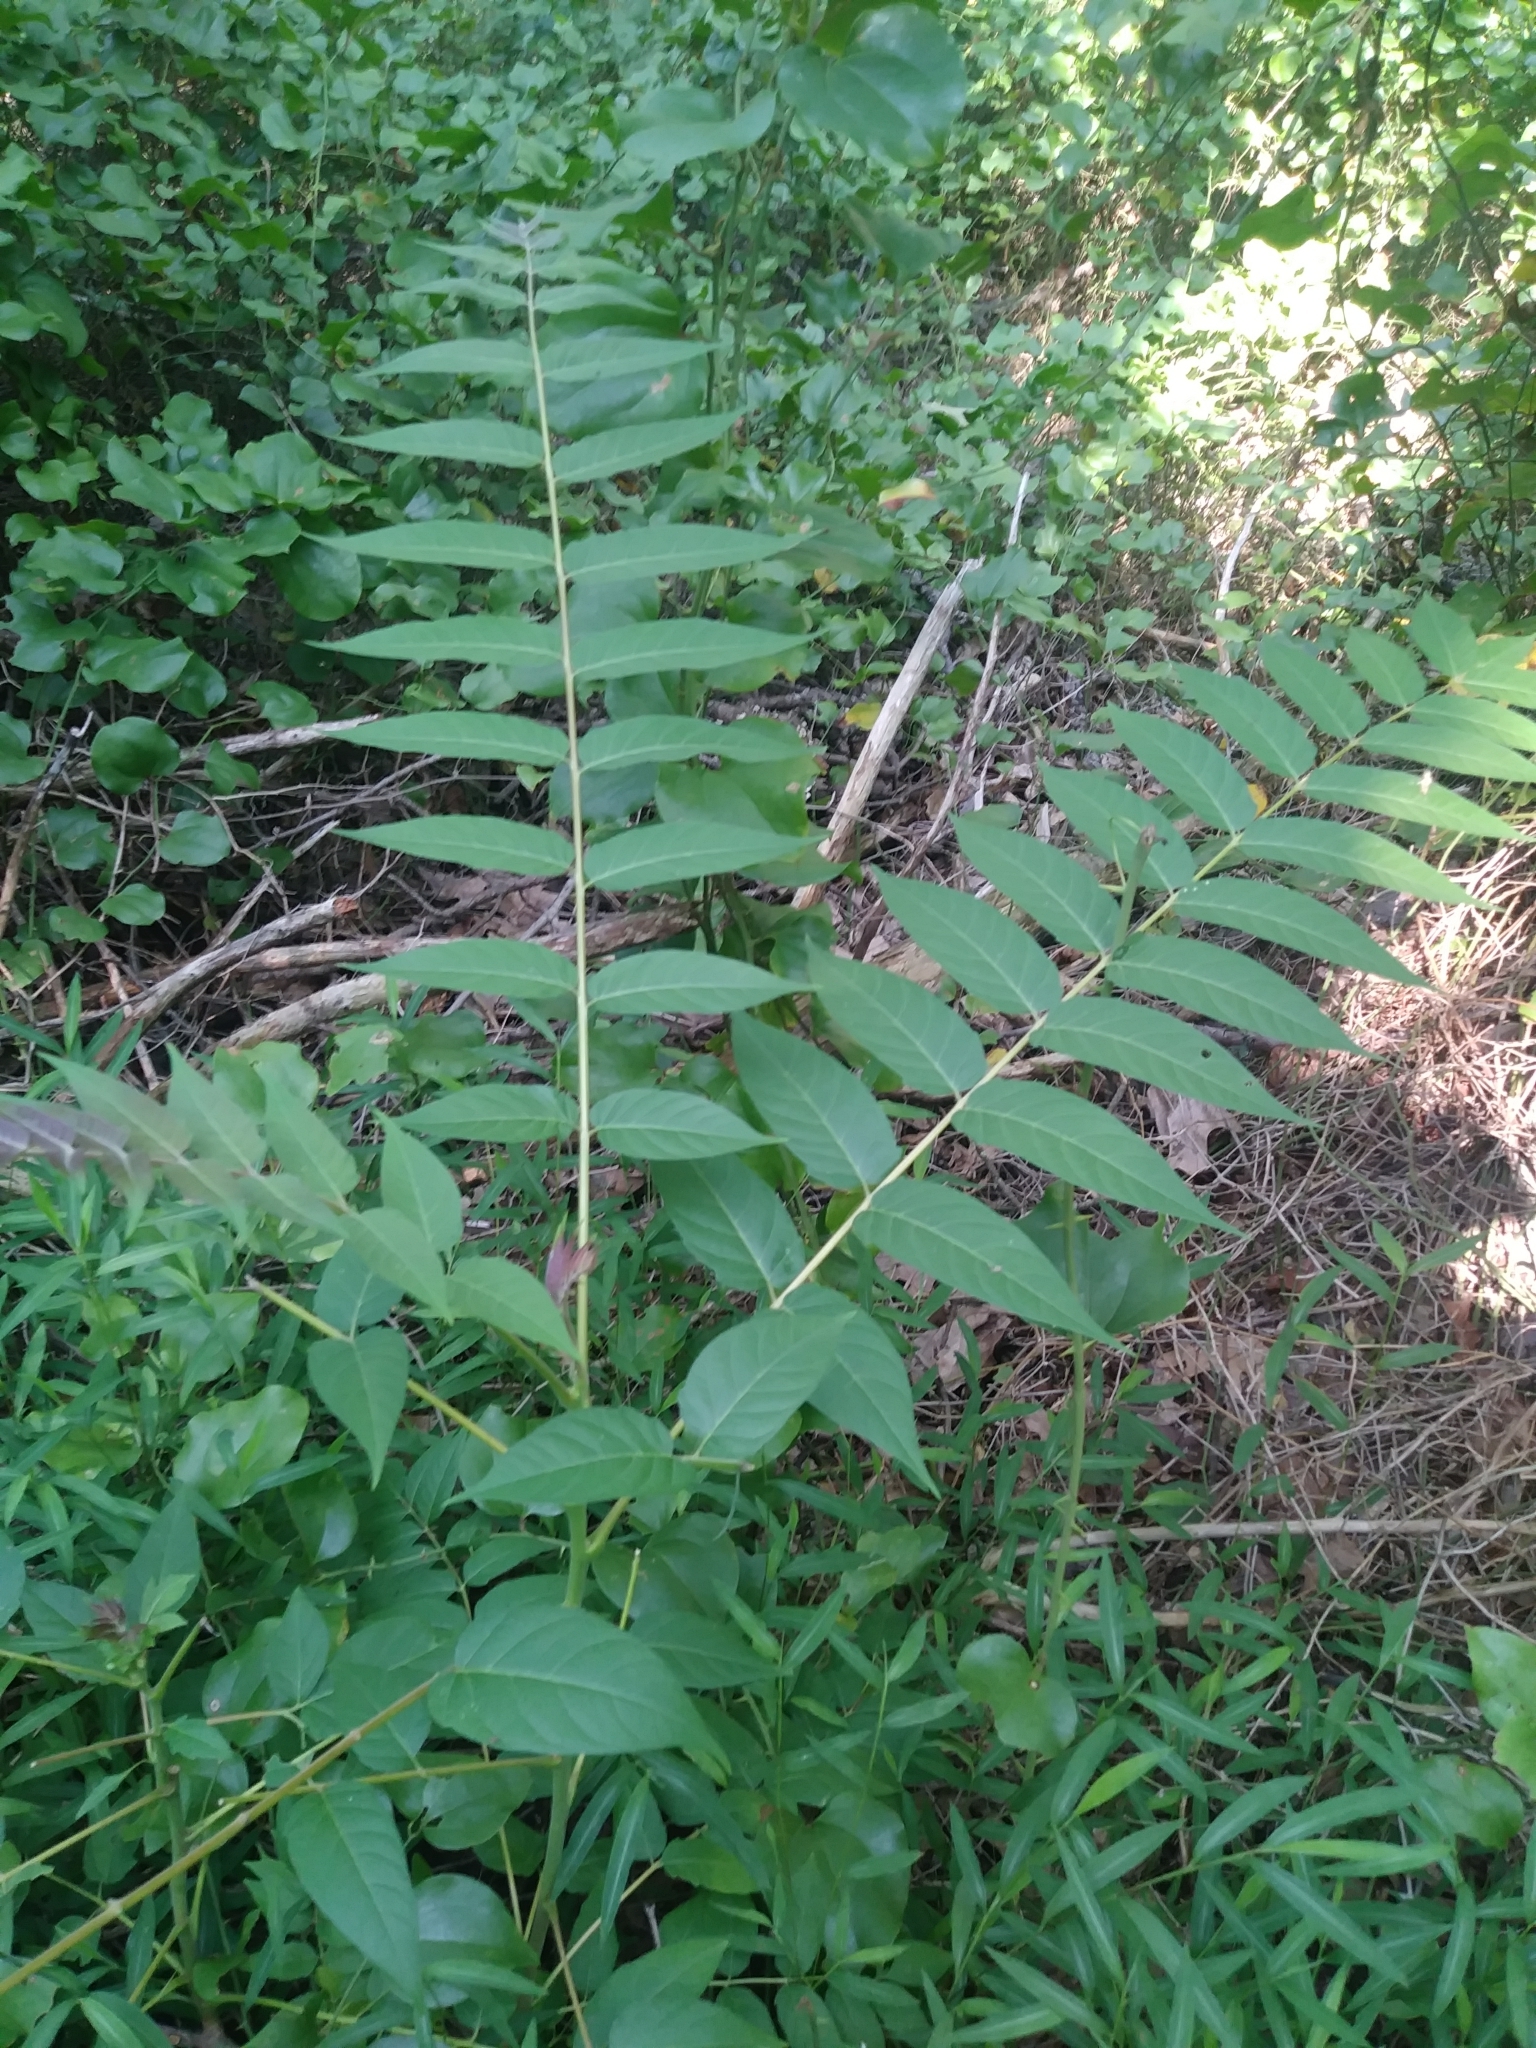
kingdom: Plantae
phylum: Tracheophyta
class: Magnoliopsida
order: Sapindales
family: Simaroubaceae
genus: Ailanthus
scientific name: Ailanthus altissima
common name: Tree-of-heaven
